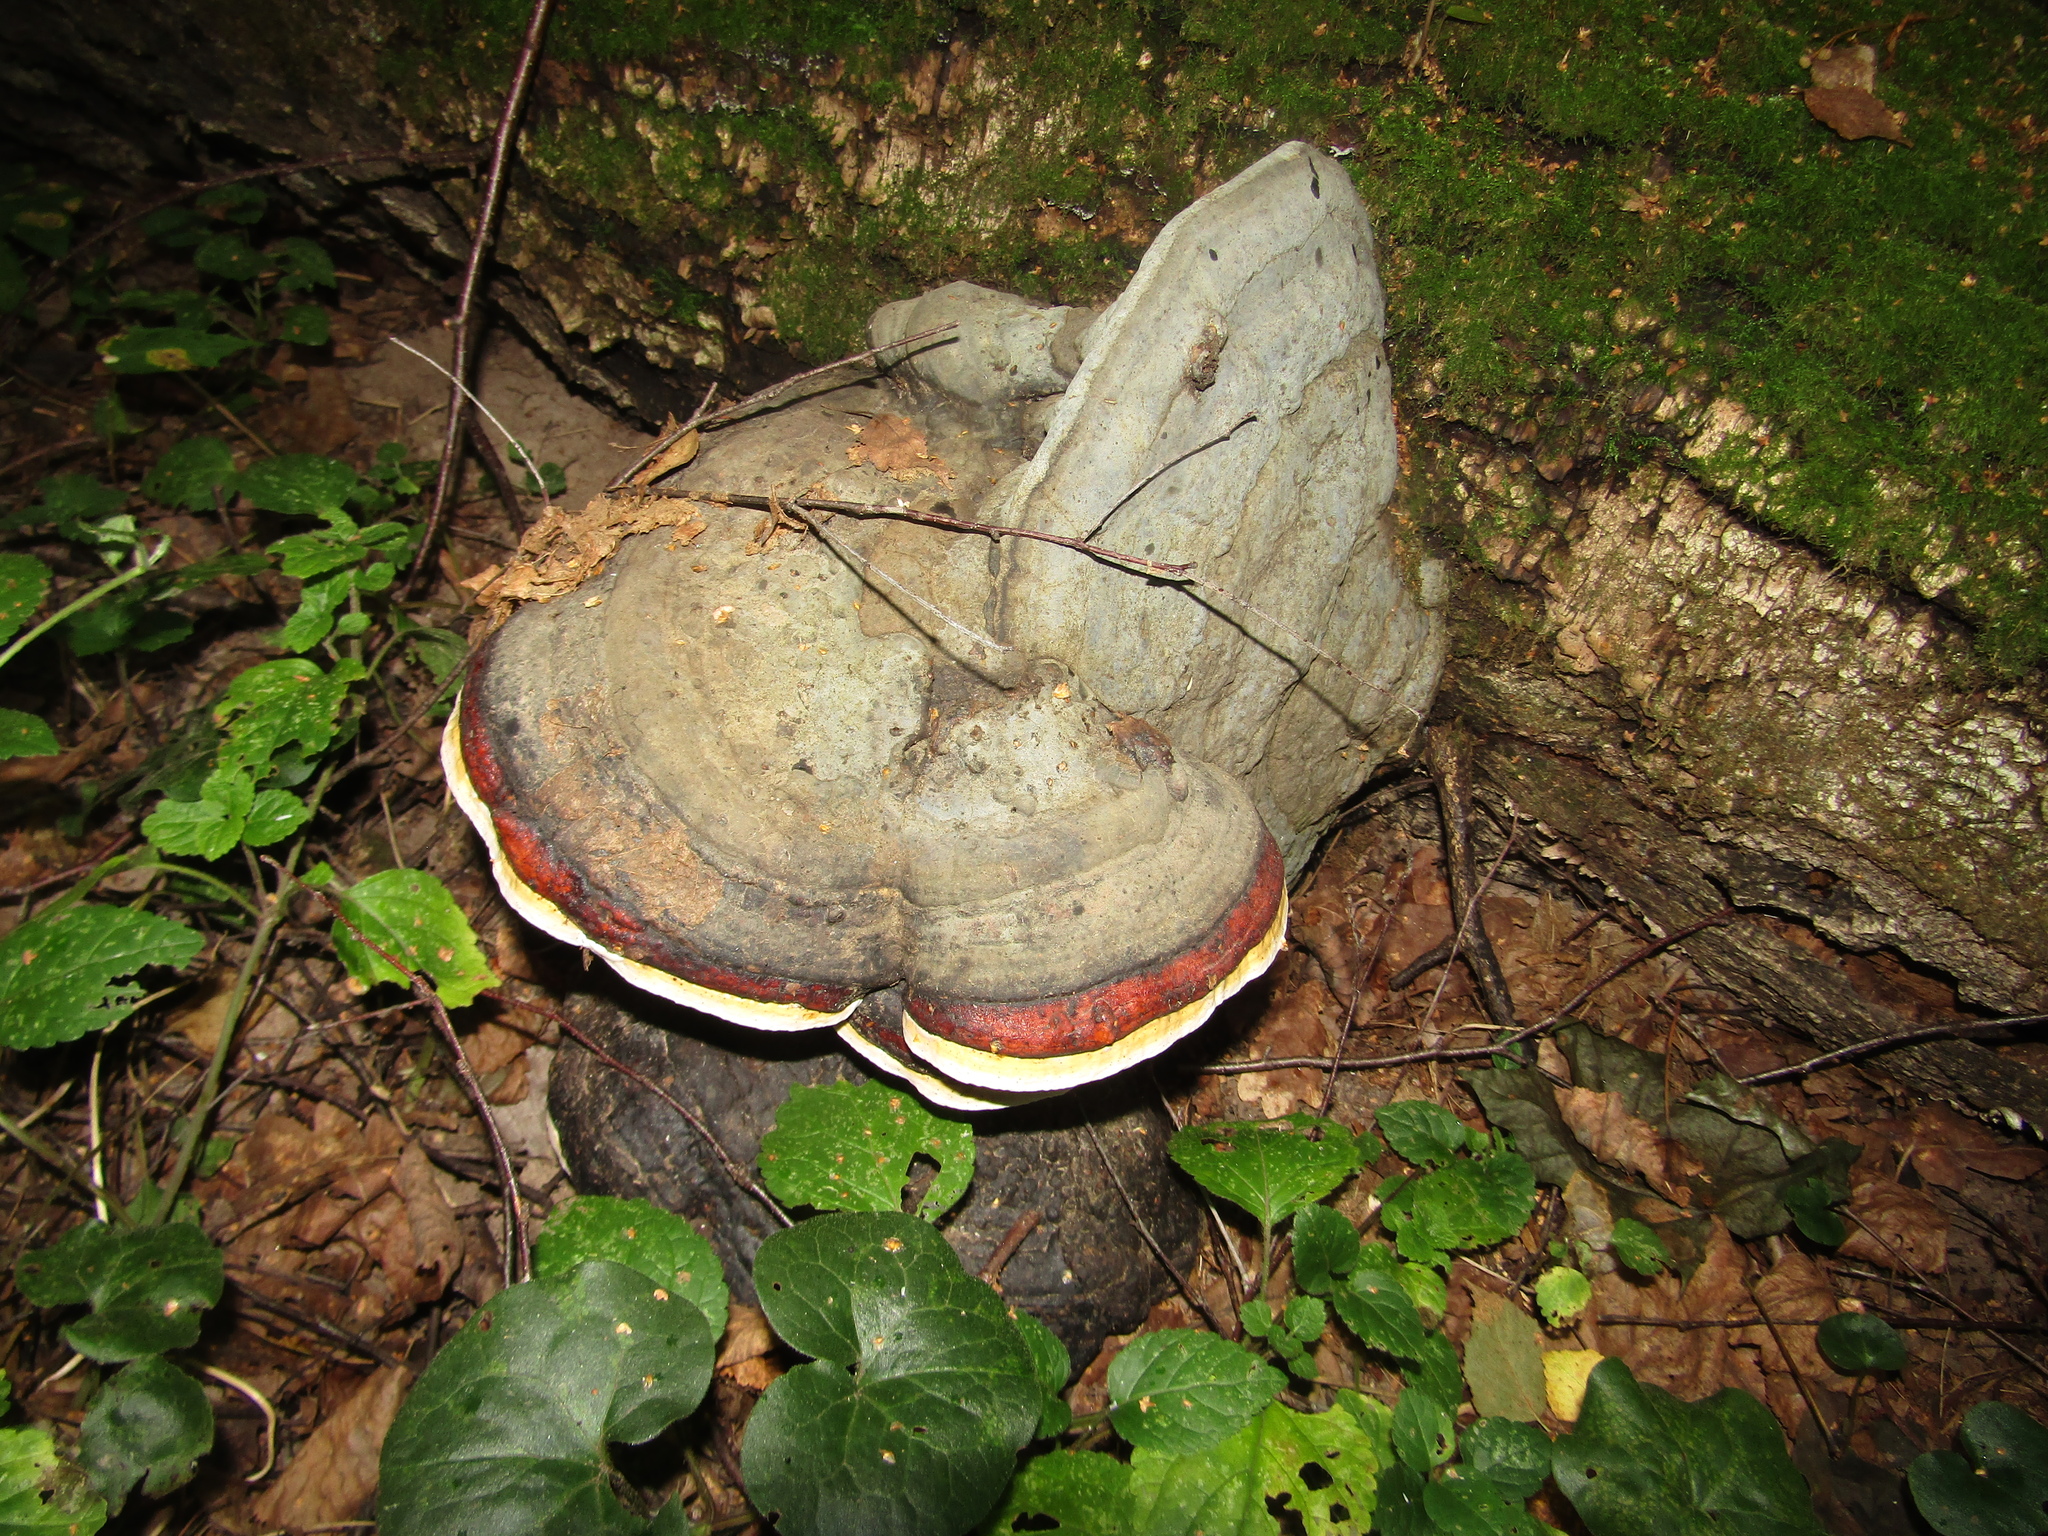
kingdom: Fungi
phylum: Basidiomycota
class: Agaricomycetes
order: Polyporales
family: Fomitopsidaceae
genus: Fomitopsis
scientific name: Fomitopsis pinicola
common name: Red-belted bracket
